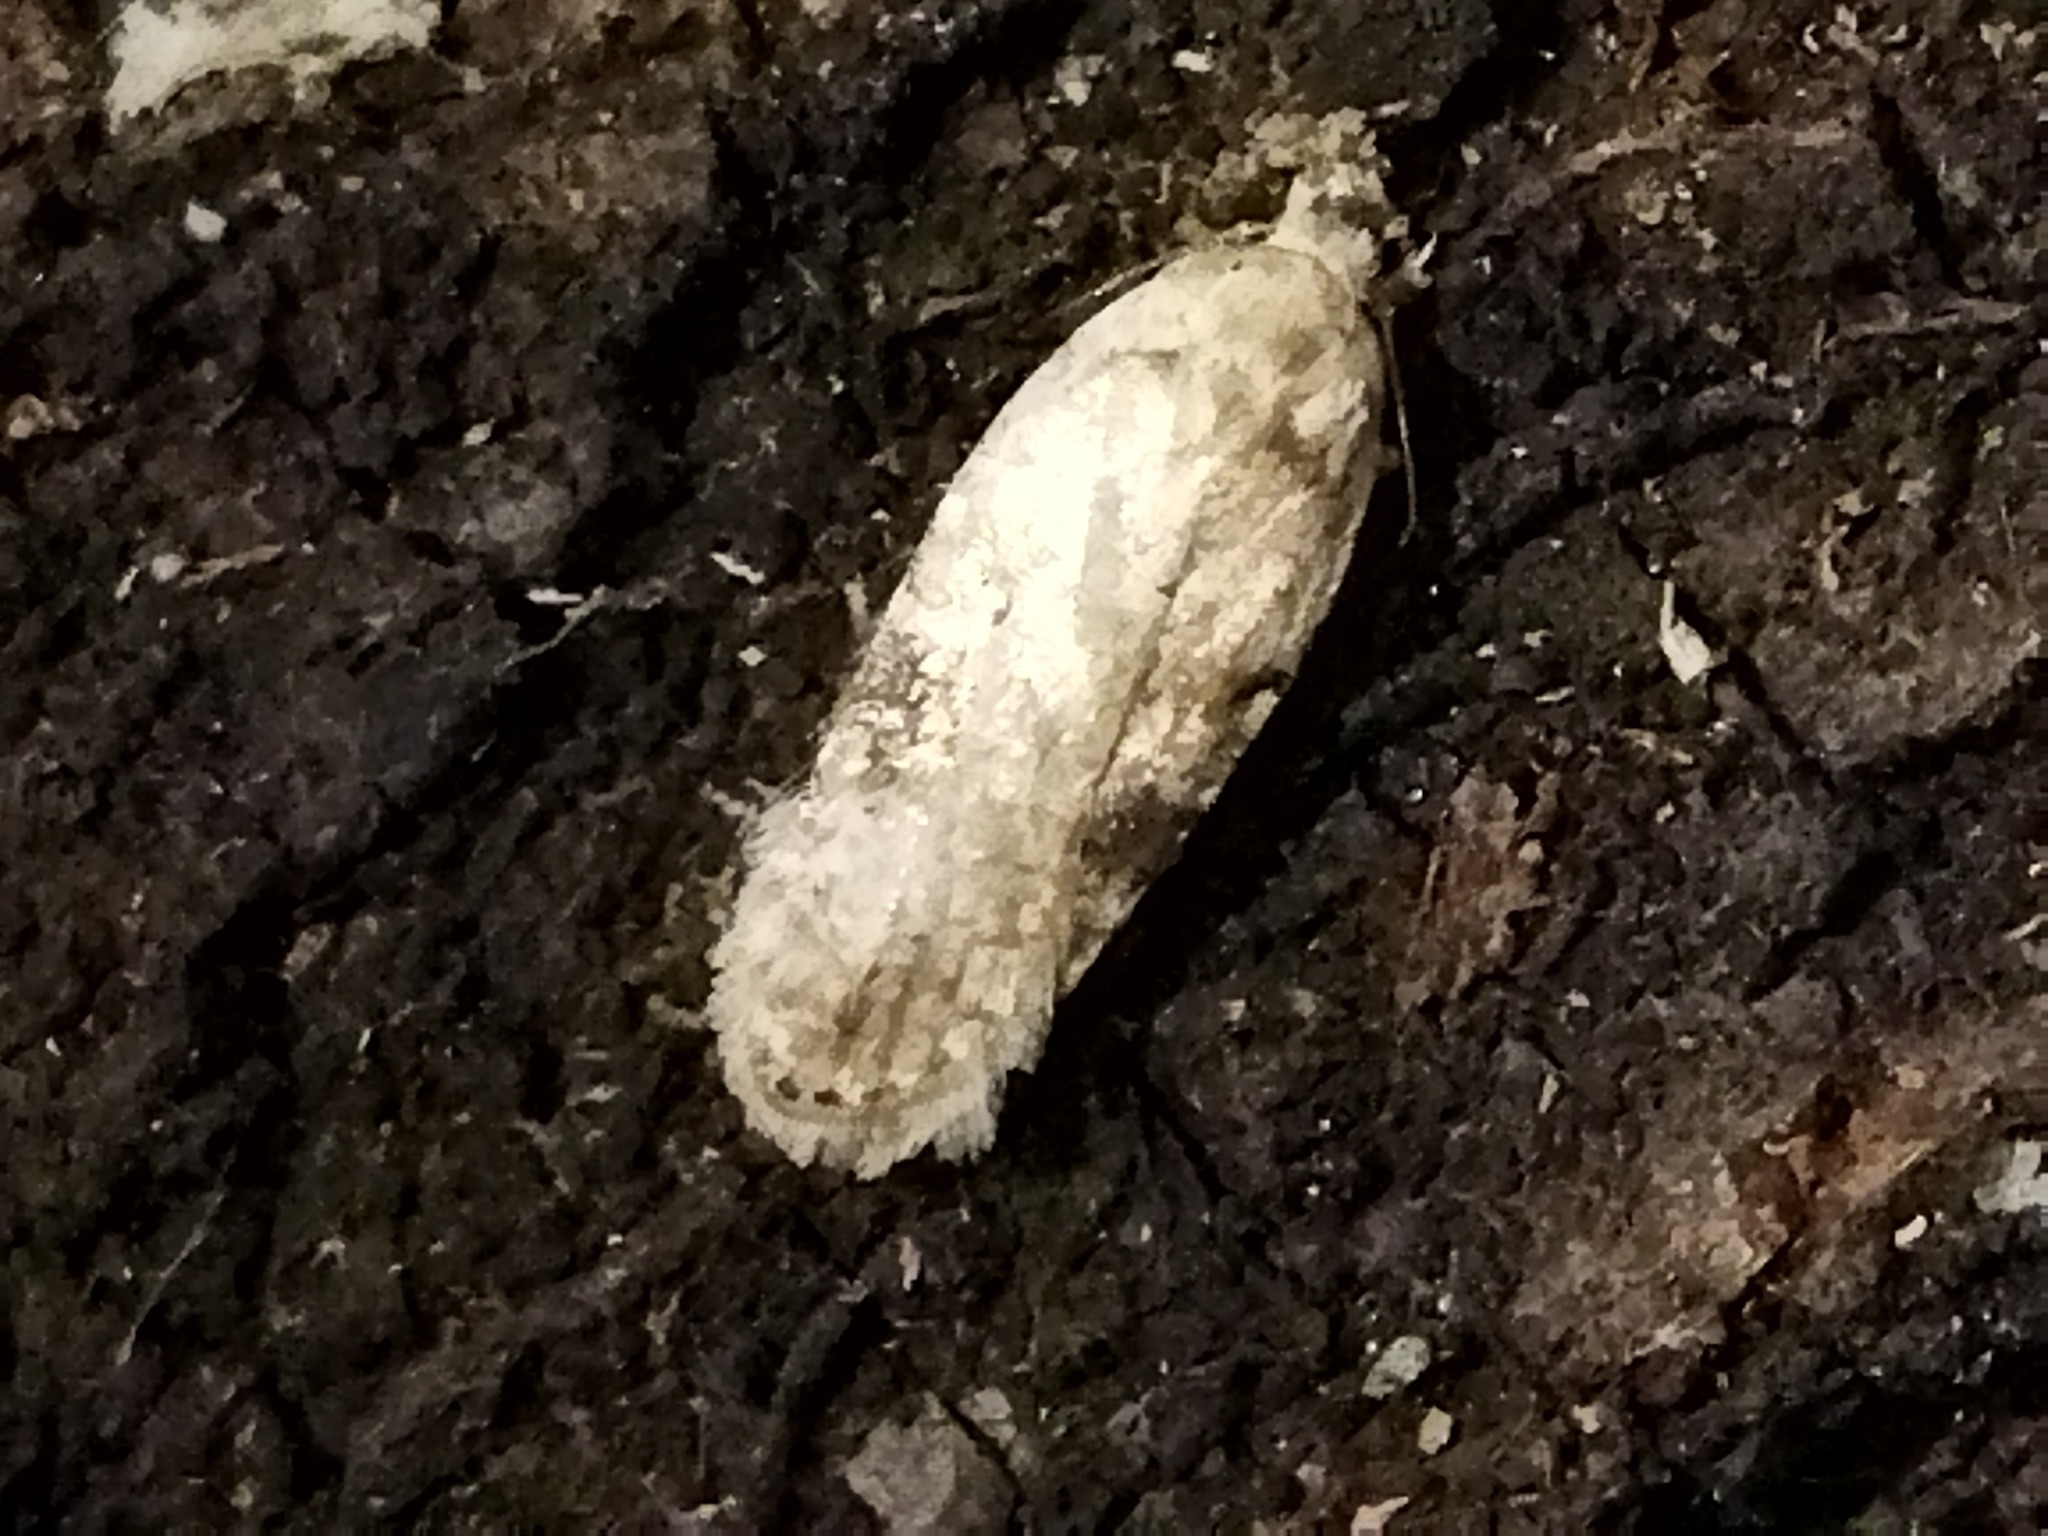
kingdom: Animalia
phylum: Arthropoda
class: Insecta
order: Lepidoptera
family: Depressariidae
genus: Agonopterix
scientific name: Agonopterix alstroemeriana
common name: Moth
